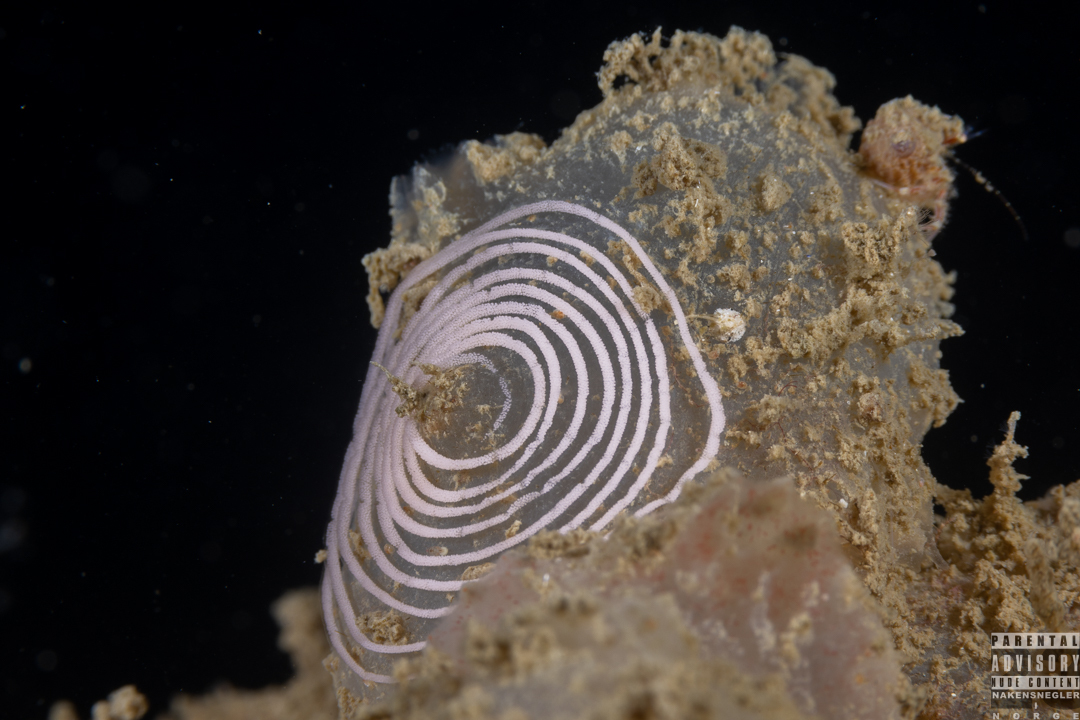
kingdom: Animalia
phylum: Mollusca
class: Gastropoda
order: Nudibranchia
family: Coryphellidae
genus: Coryphella
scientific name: Coryphella verrucosa
